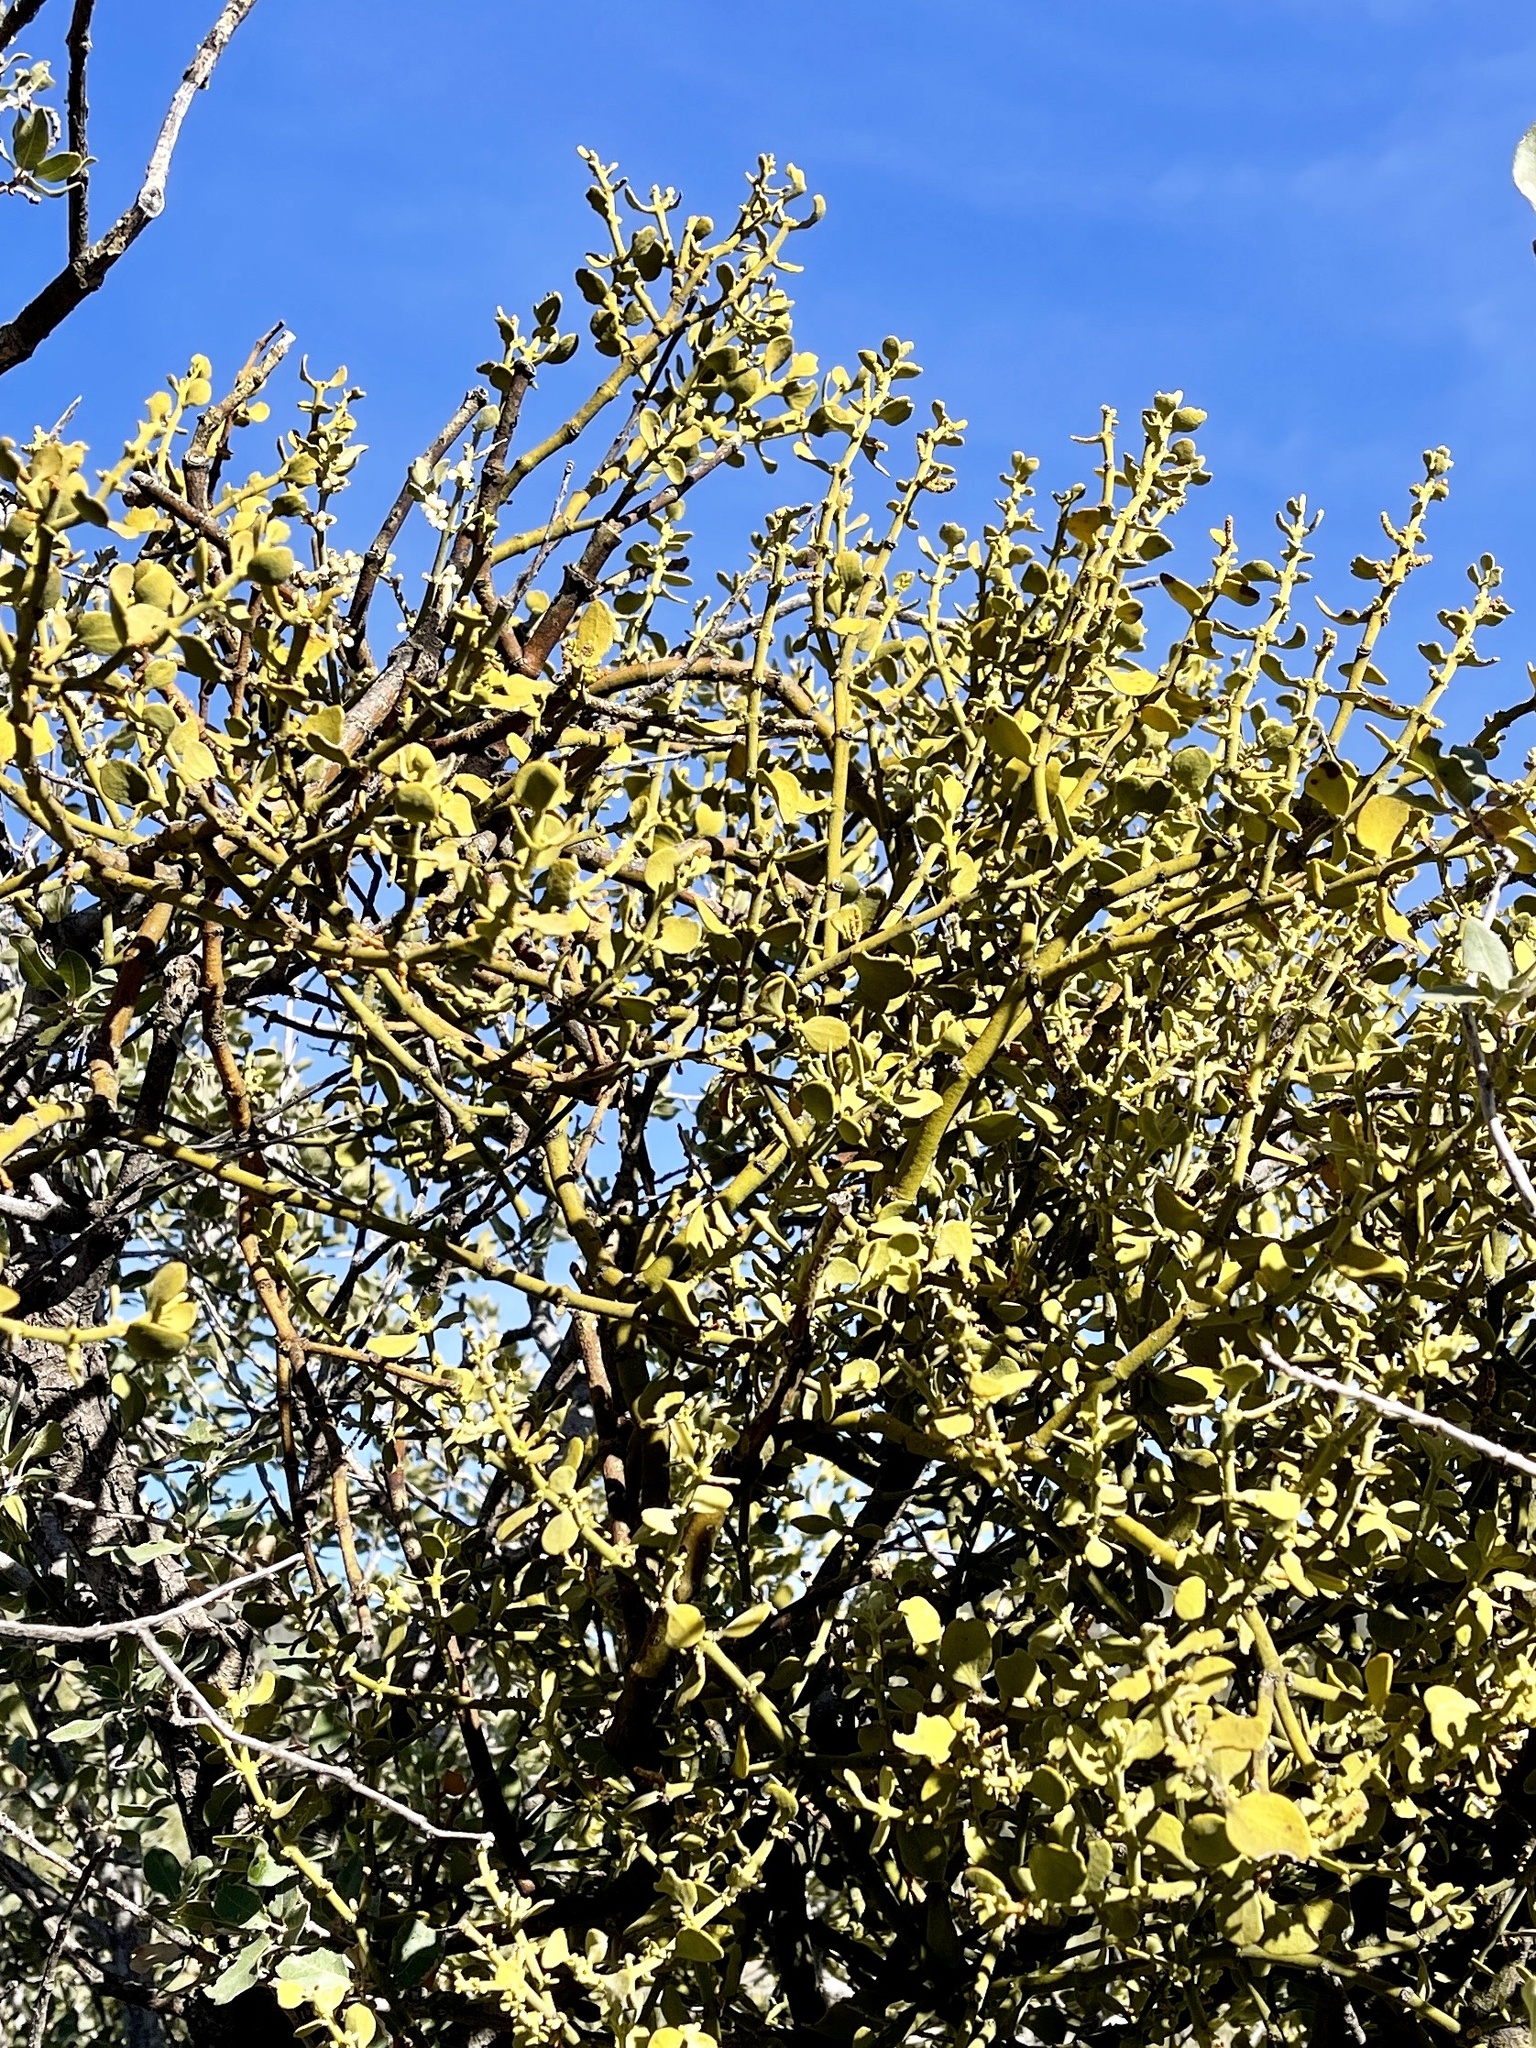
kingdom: Plantae
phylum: Tracheophyta
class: Magnoliopsida
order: Santalales
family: Viscaceae
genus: Phoradendron
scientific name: Phoradendron coryae
